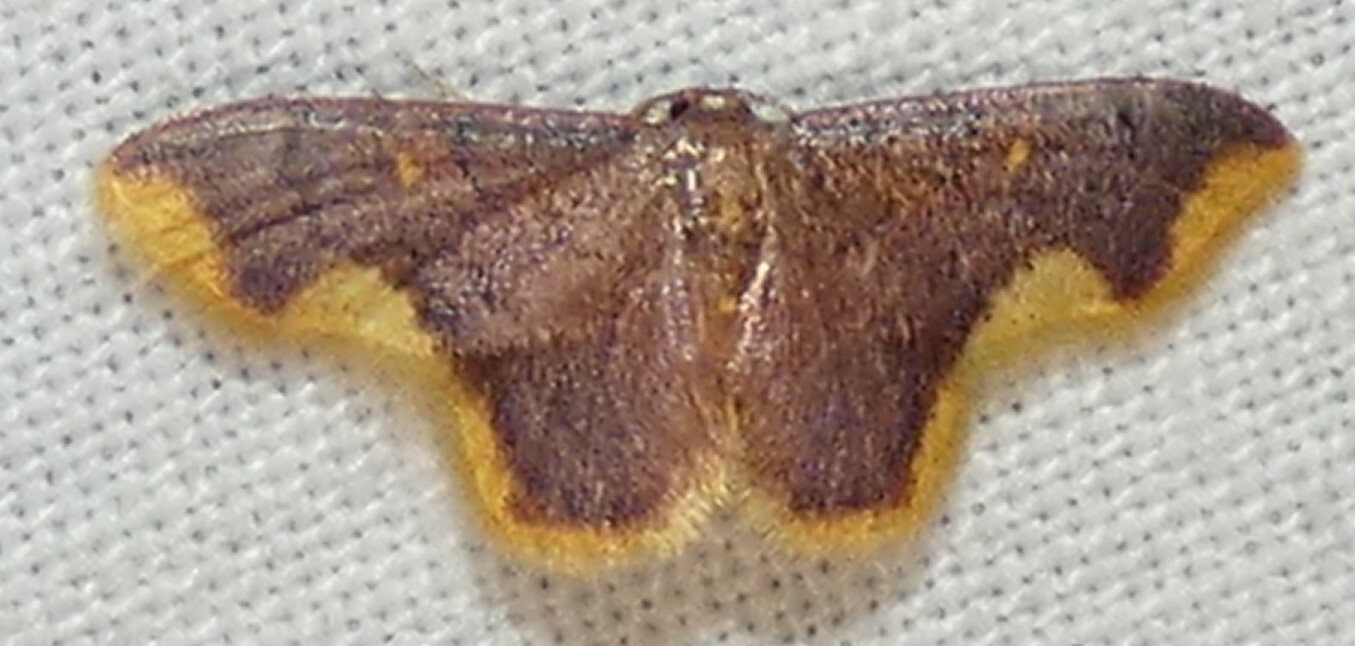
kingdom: Animalia
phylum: Arthropoda
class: Insecta
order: Lepidoptera
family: Geometridae
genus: Lophosis
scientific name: Lophosis labeculata
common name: Stained lophosis moth
